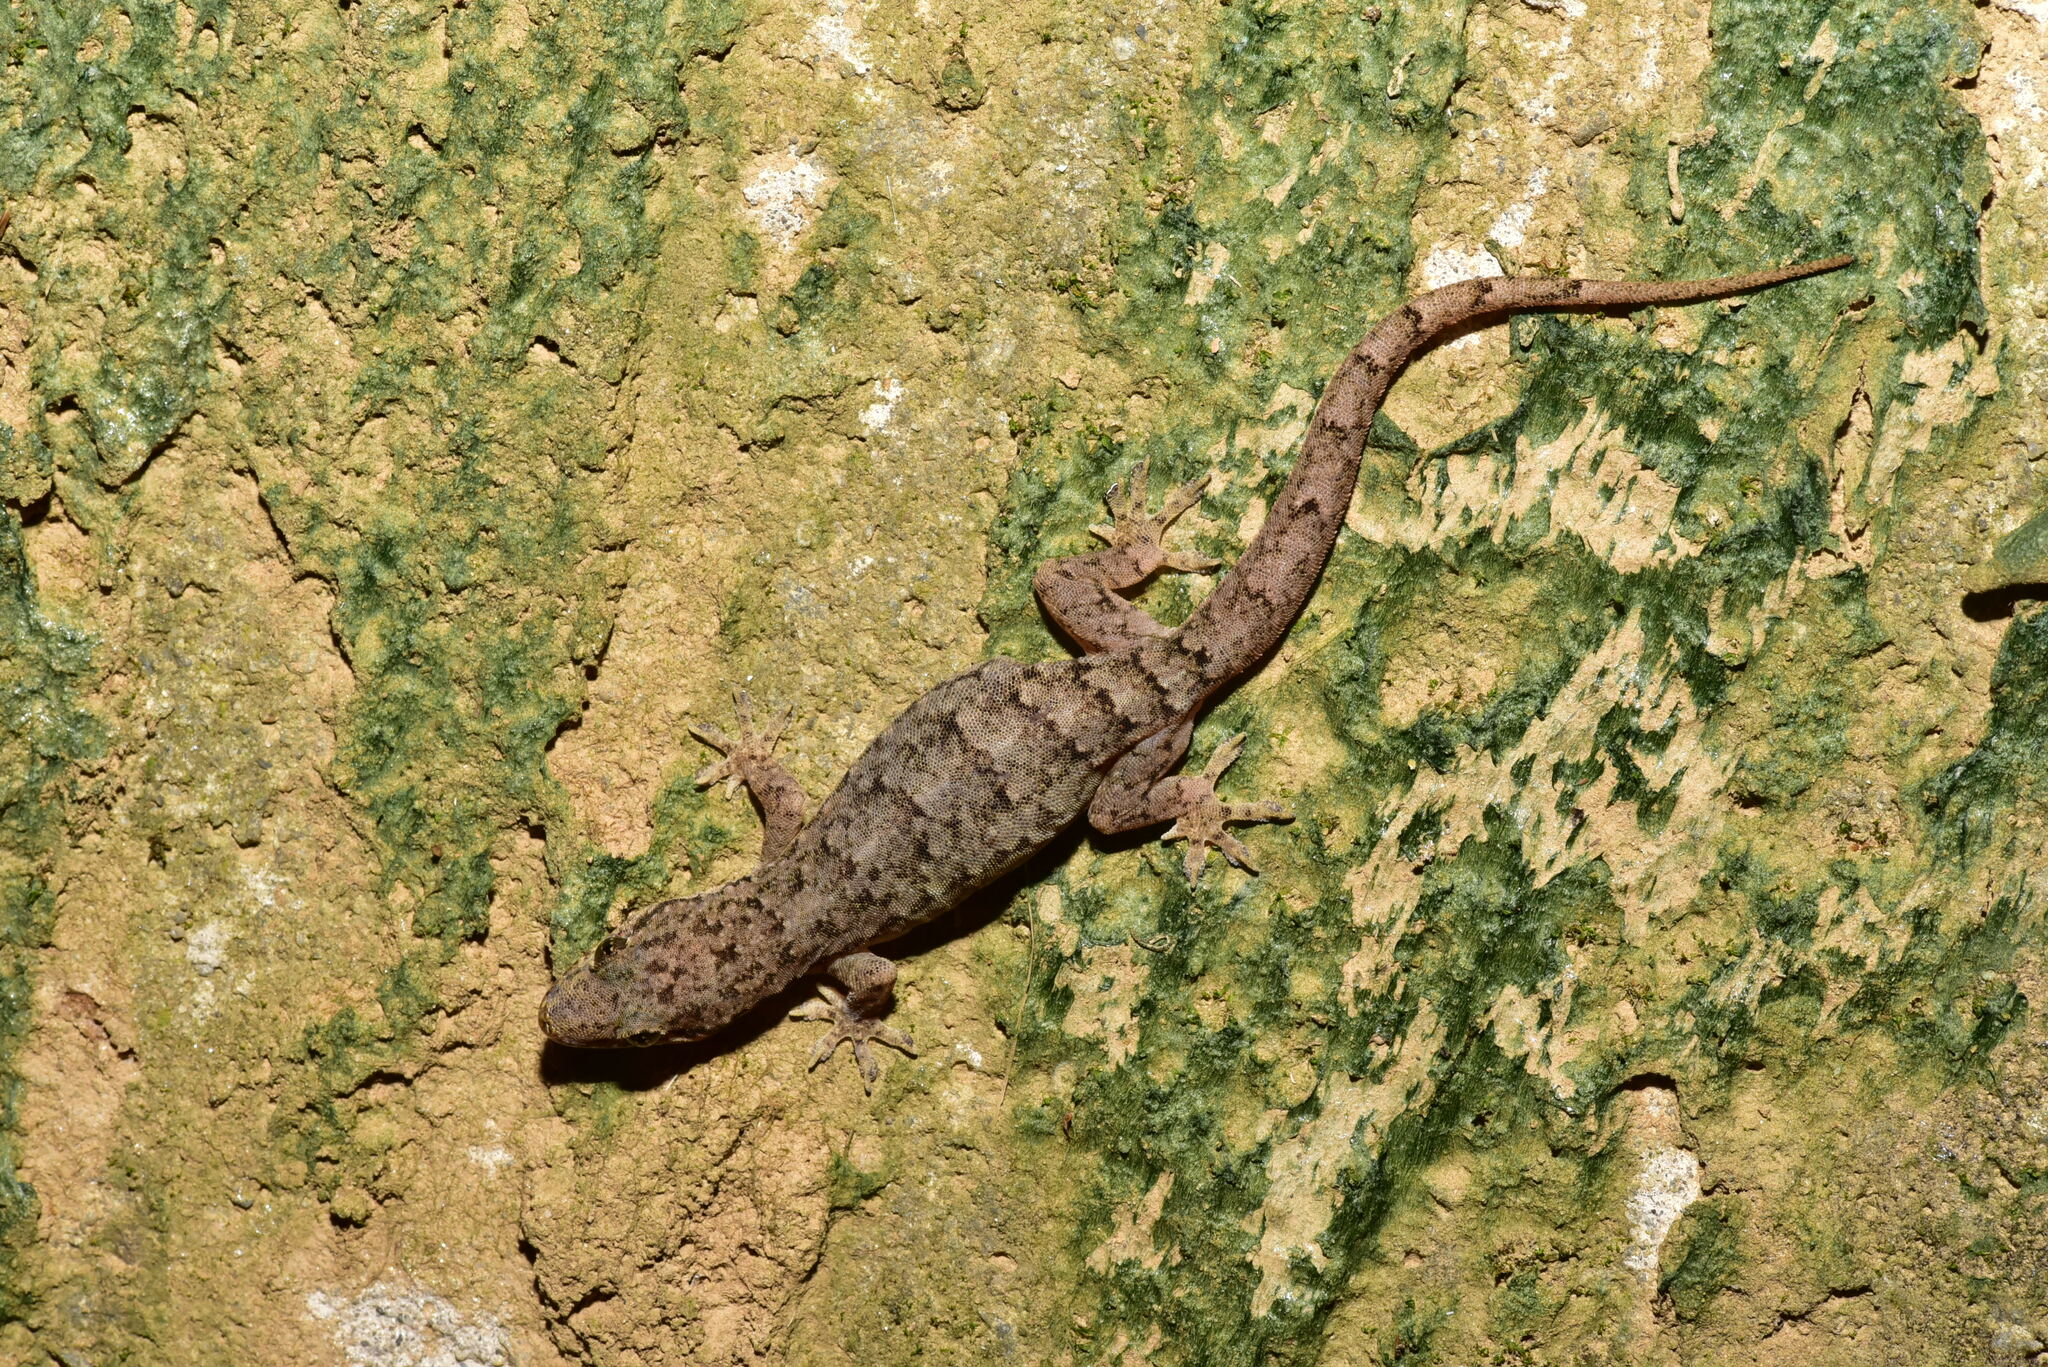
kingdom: Animalia
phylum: Chordata
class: Squamata
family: Gekkonidae
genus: Hemidactylus
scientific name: Hemidactylus bowringii
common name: Oriental leaf-toed gecko
